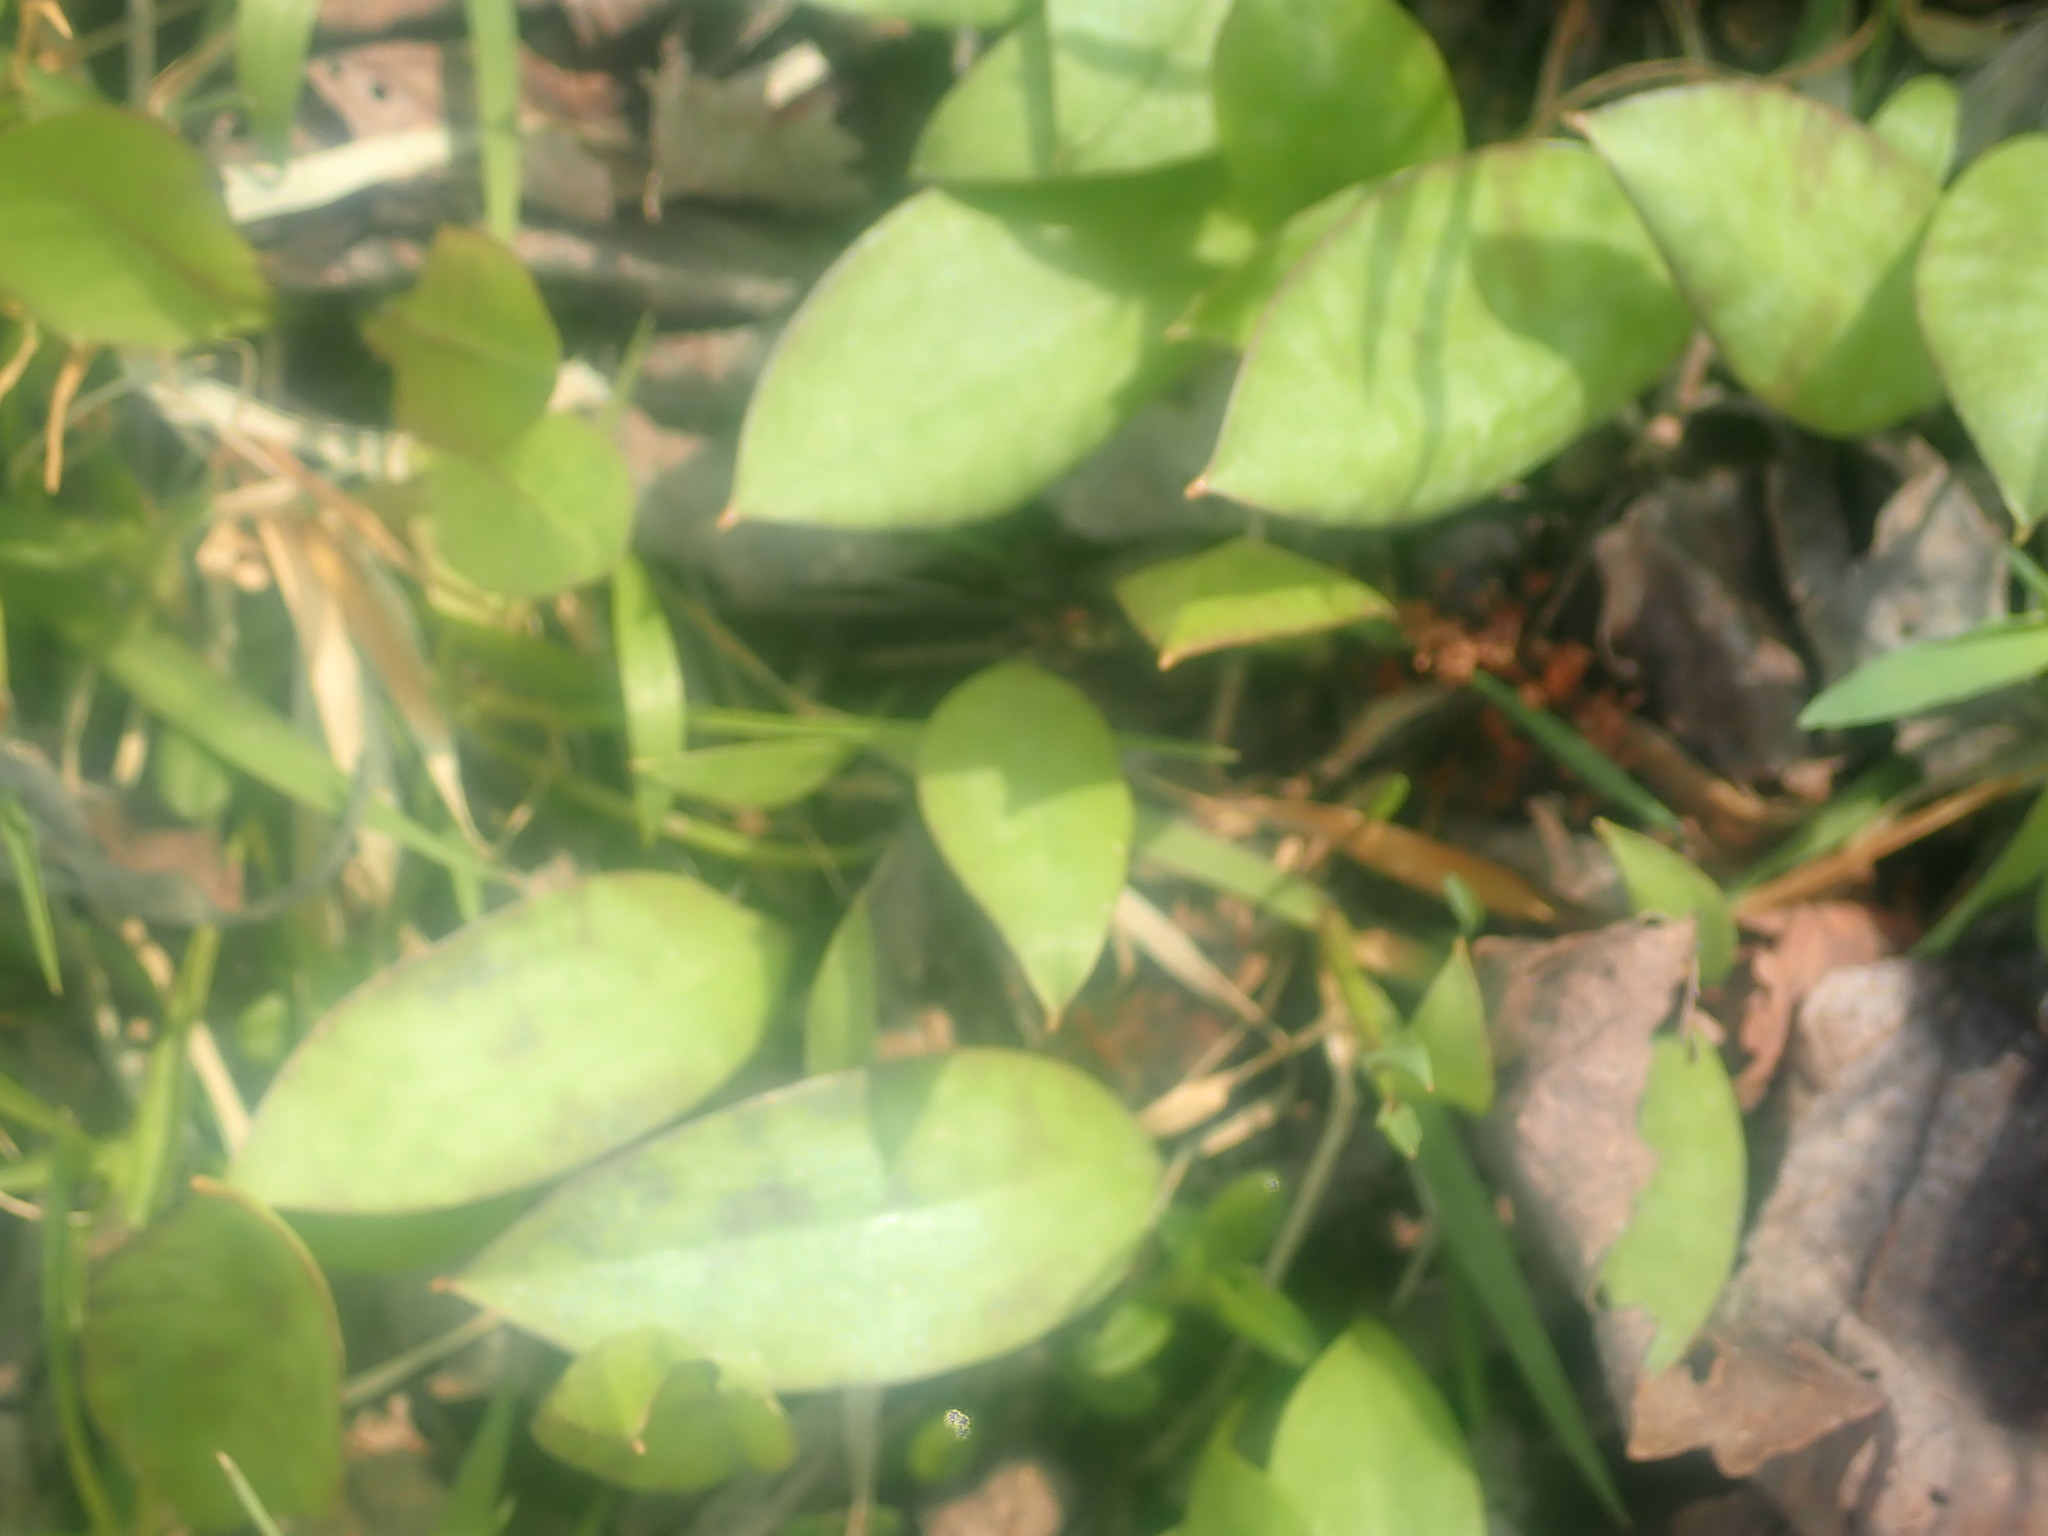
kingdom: Plantae
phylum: Tracheophyta
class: Liliopsida
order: Liliales
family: Liliaceae
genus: Erythronium
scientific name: Erythronium
